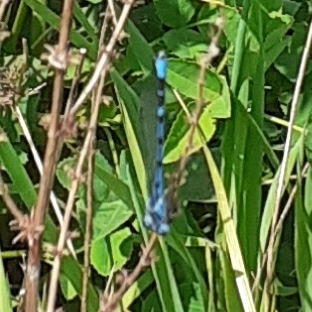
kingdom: Animalia
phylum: Arthropoda
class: Insecta
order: Odonata
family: Coenagrionidae
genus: Enallagma
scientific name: Enallagma cyathigerum
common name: Common blue damselfly
